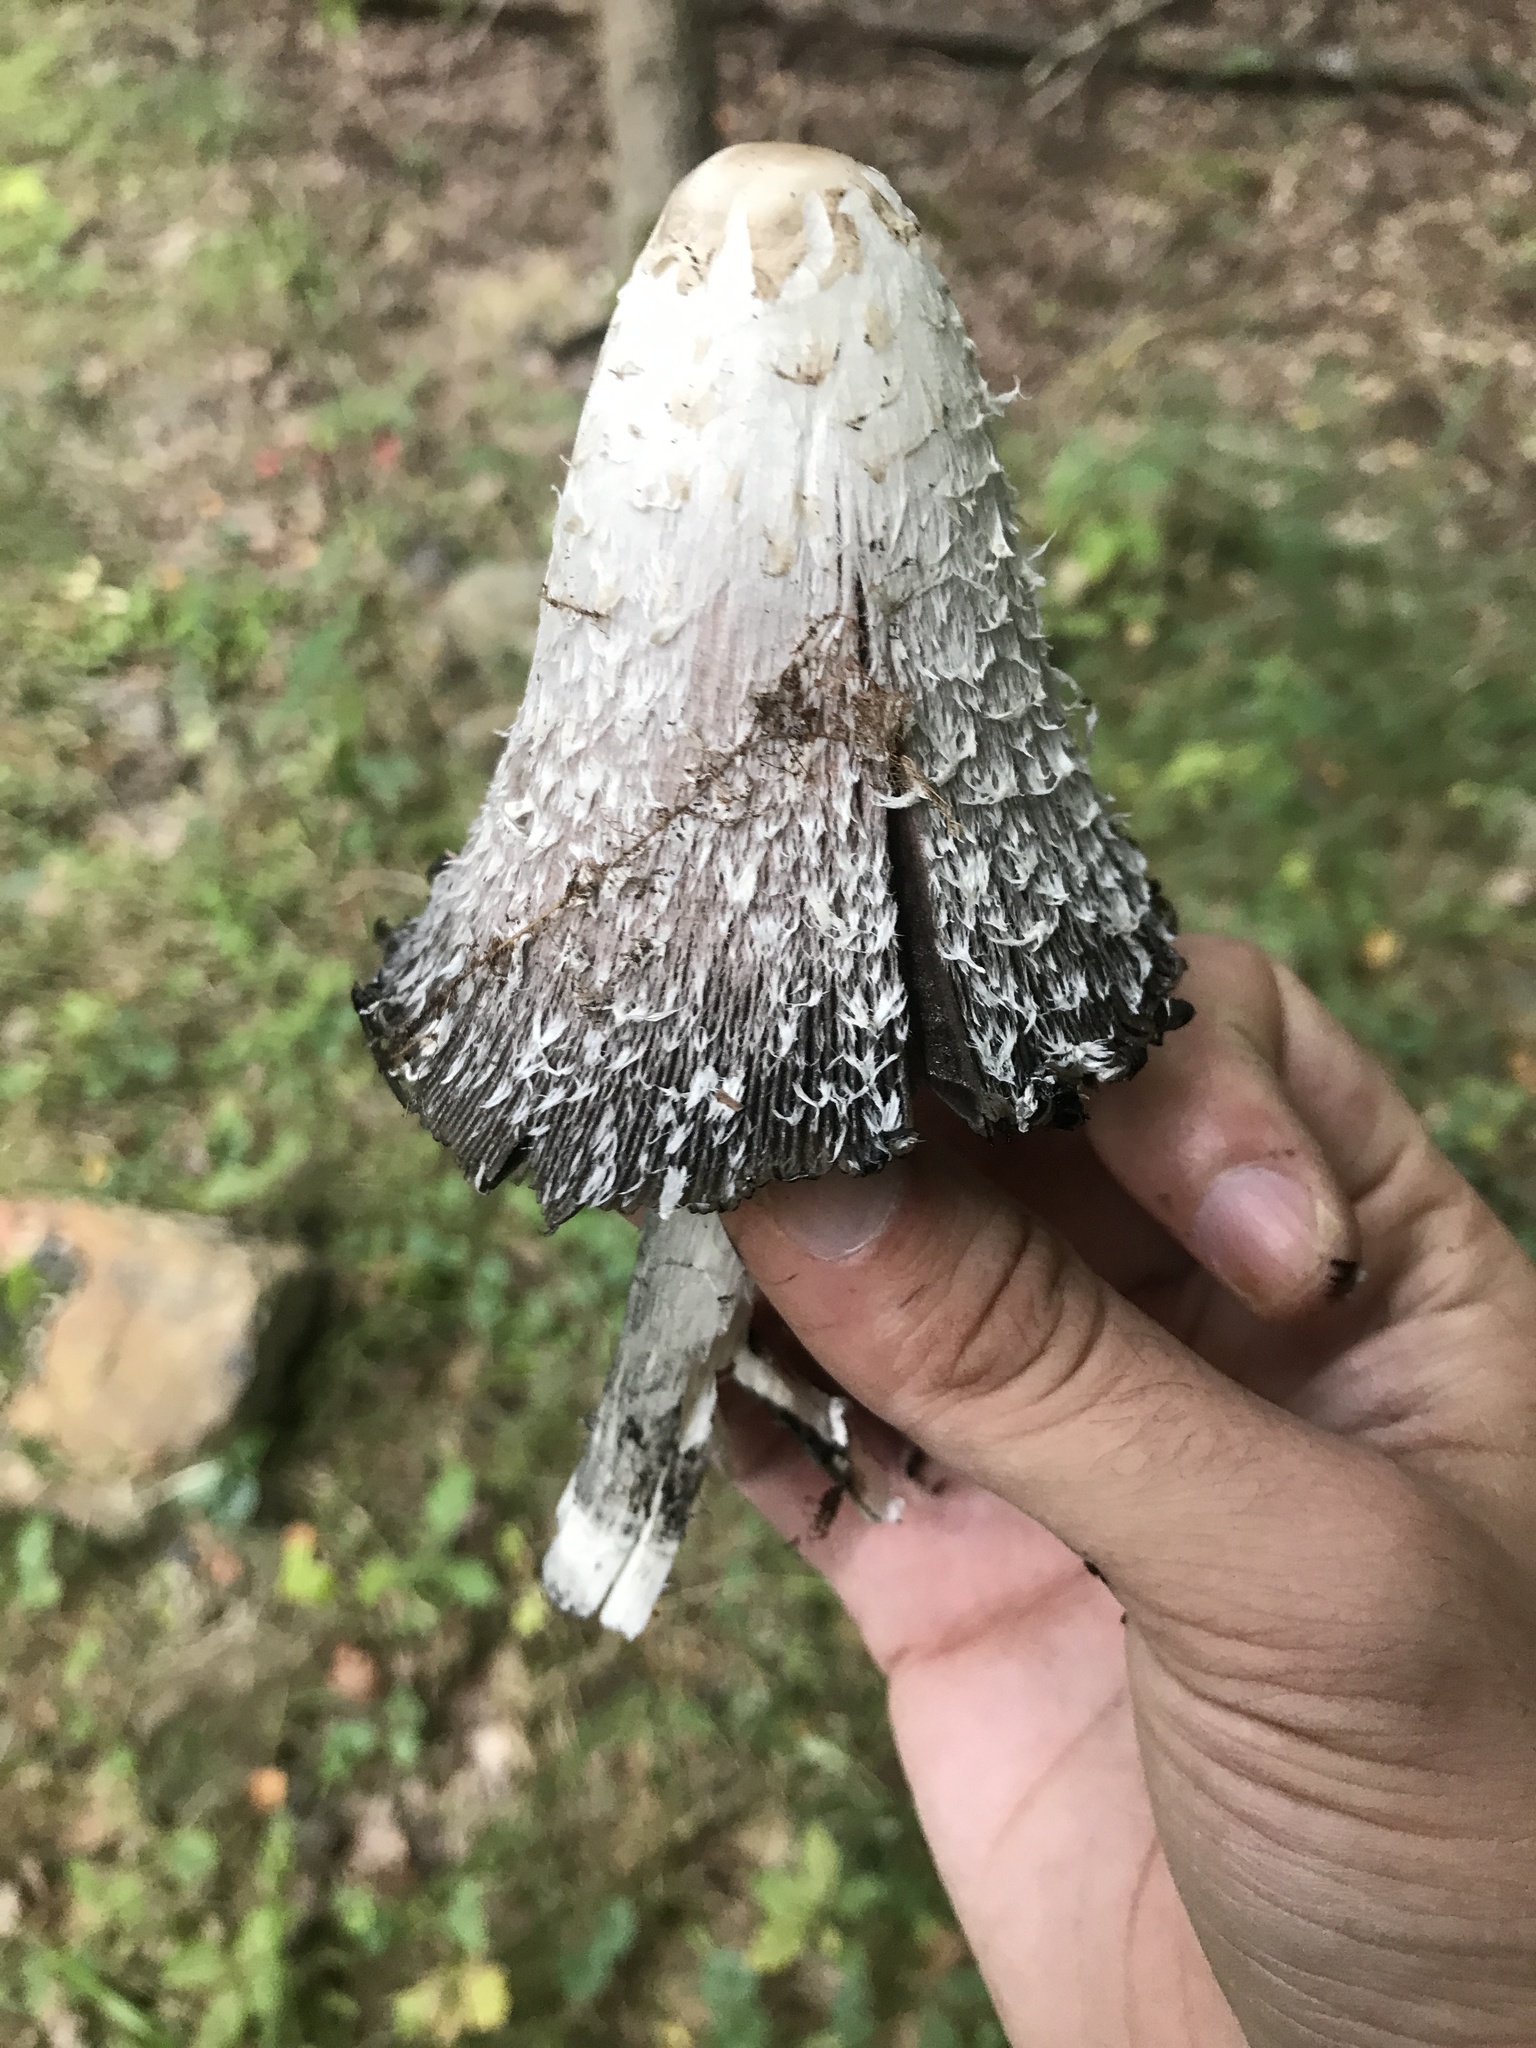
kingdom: Fungi
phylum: Basidiomycota
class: Agaricomycetes
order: Agaricales
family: Agaricaceae
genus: Coprinus
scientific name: Coprinus comatus
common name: Lawyer's wig
